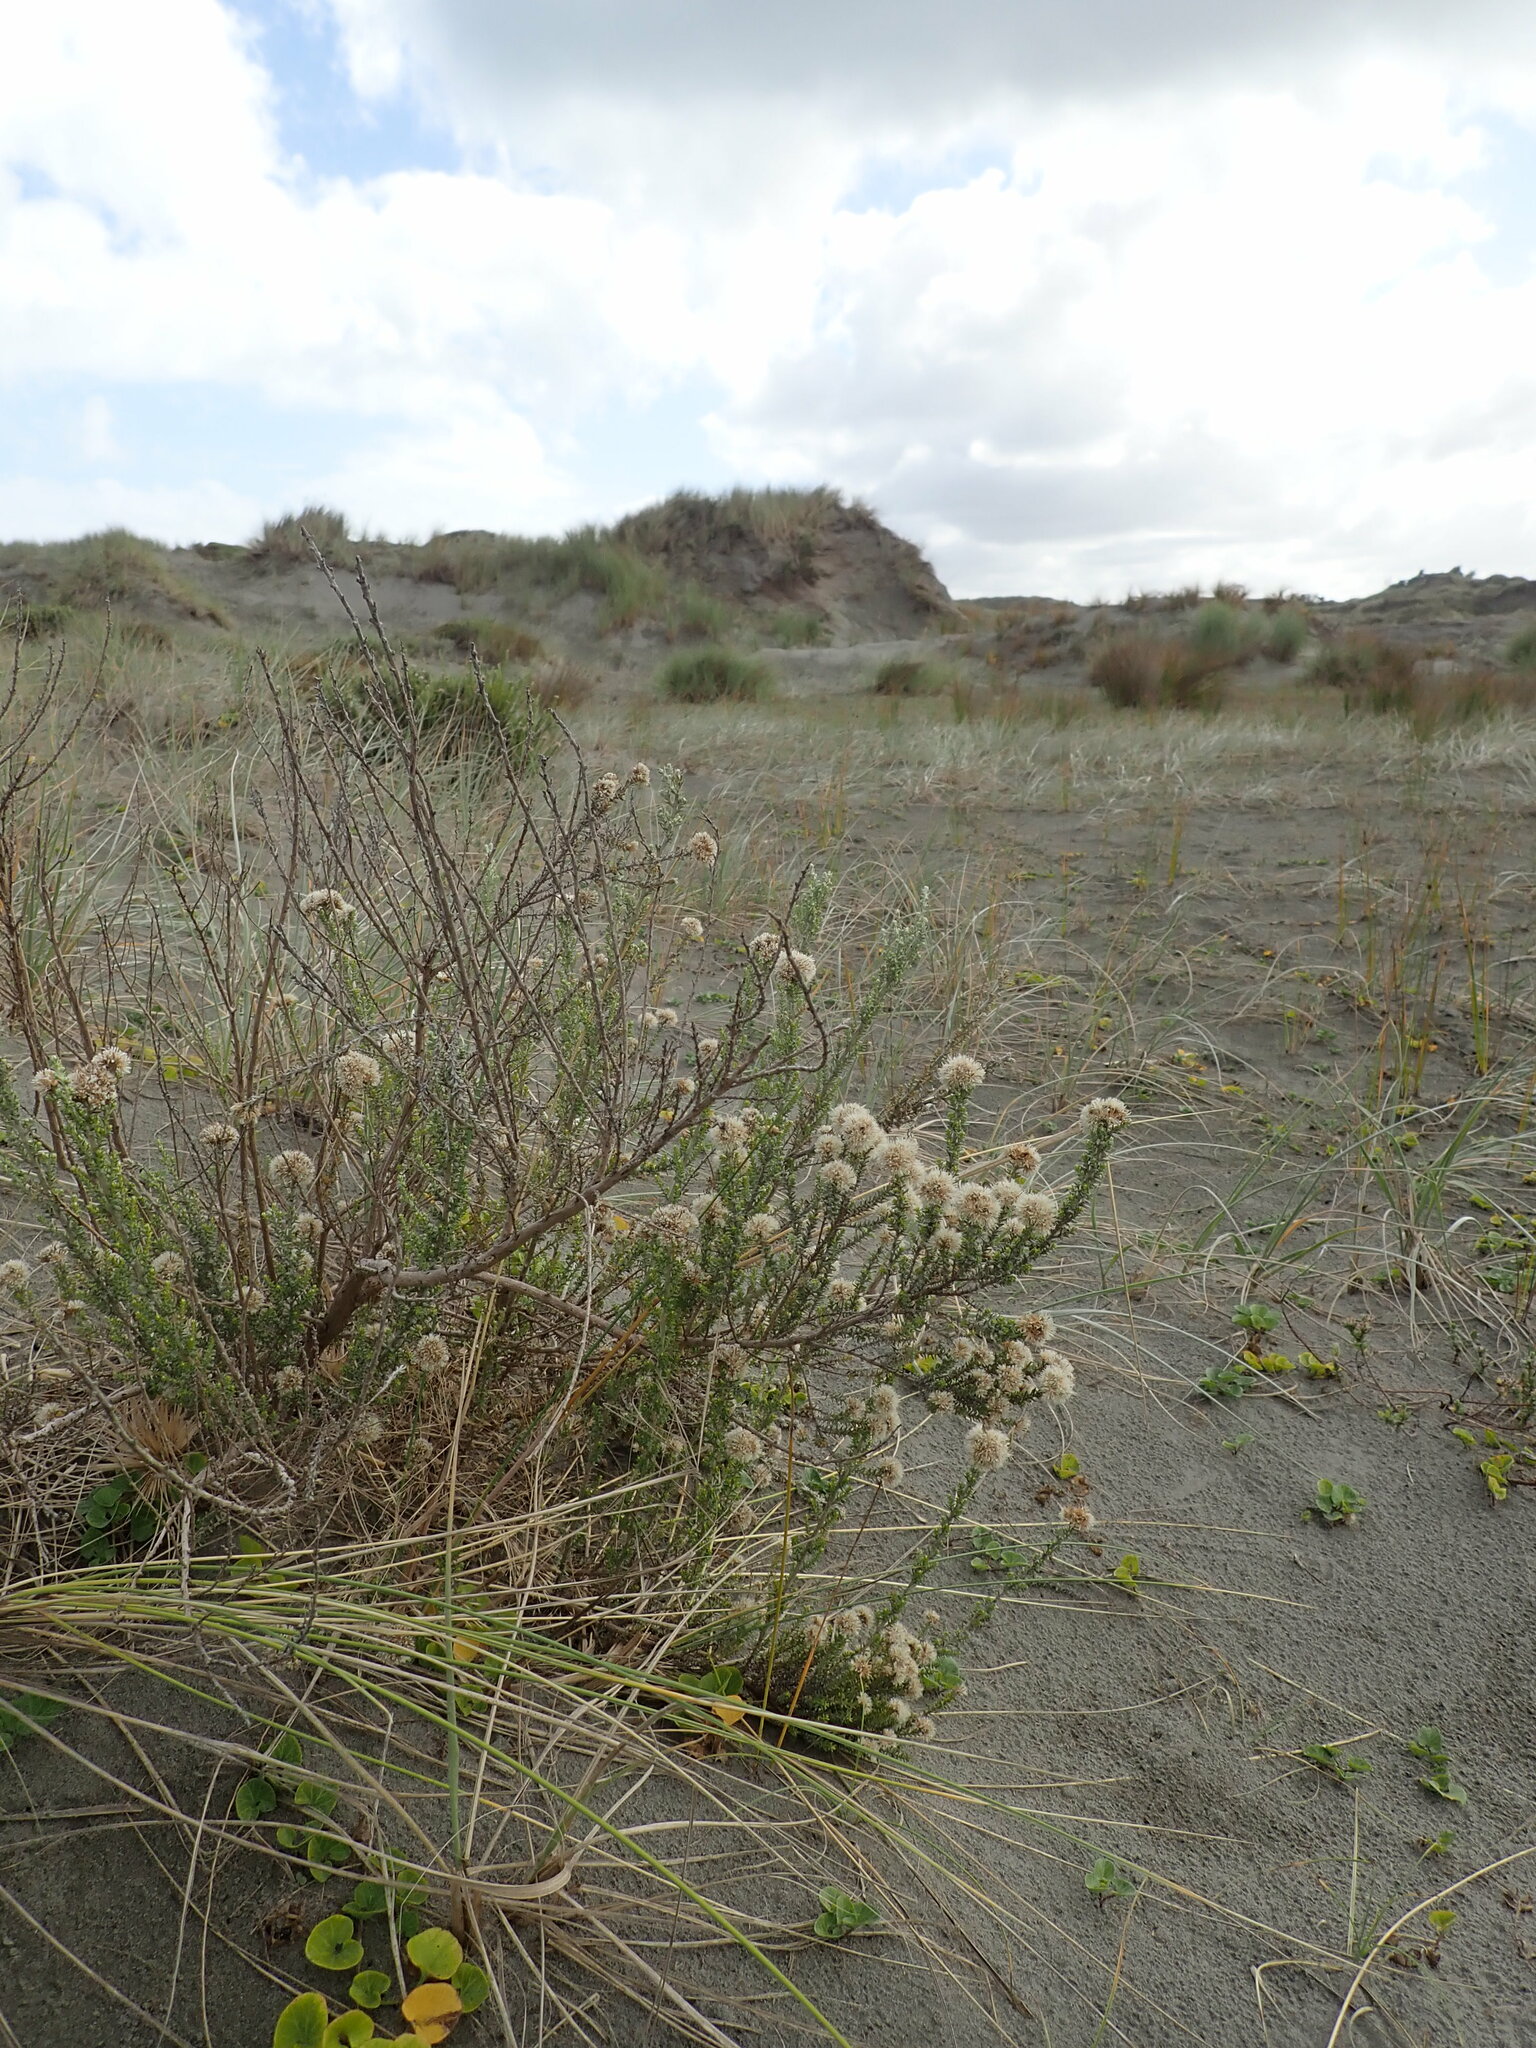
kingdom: Plantae
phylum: Tracheophyta
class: Magnoliopsida
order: Asterales
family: Asteraceae
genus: Ozothamnus
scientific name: Ozothamnus leptophyllus
